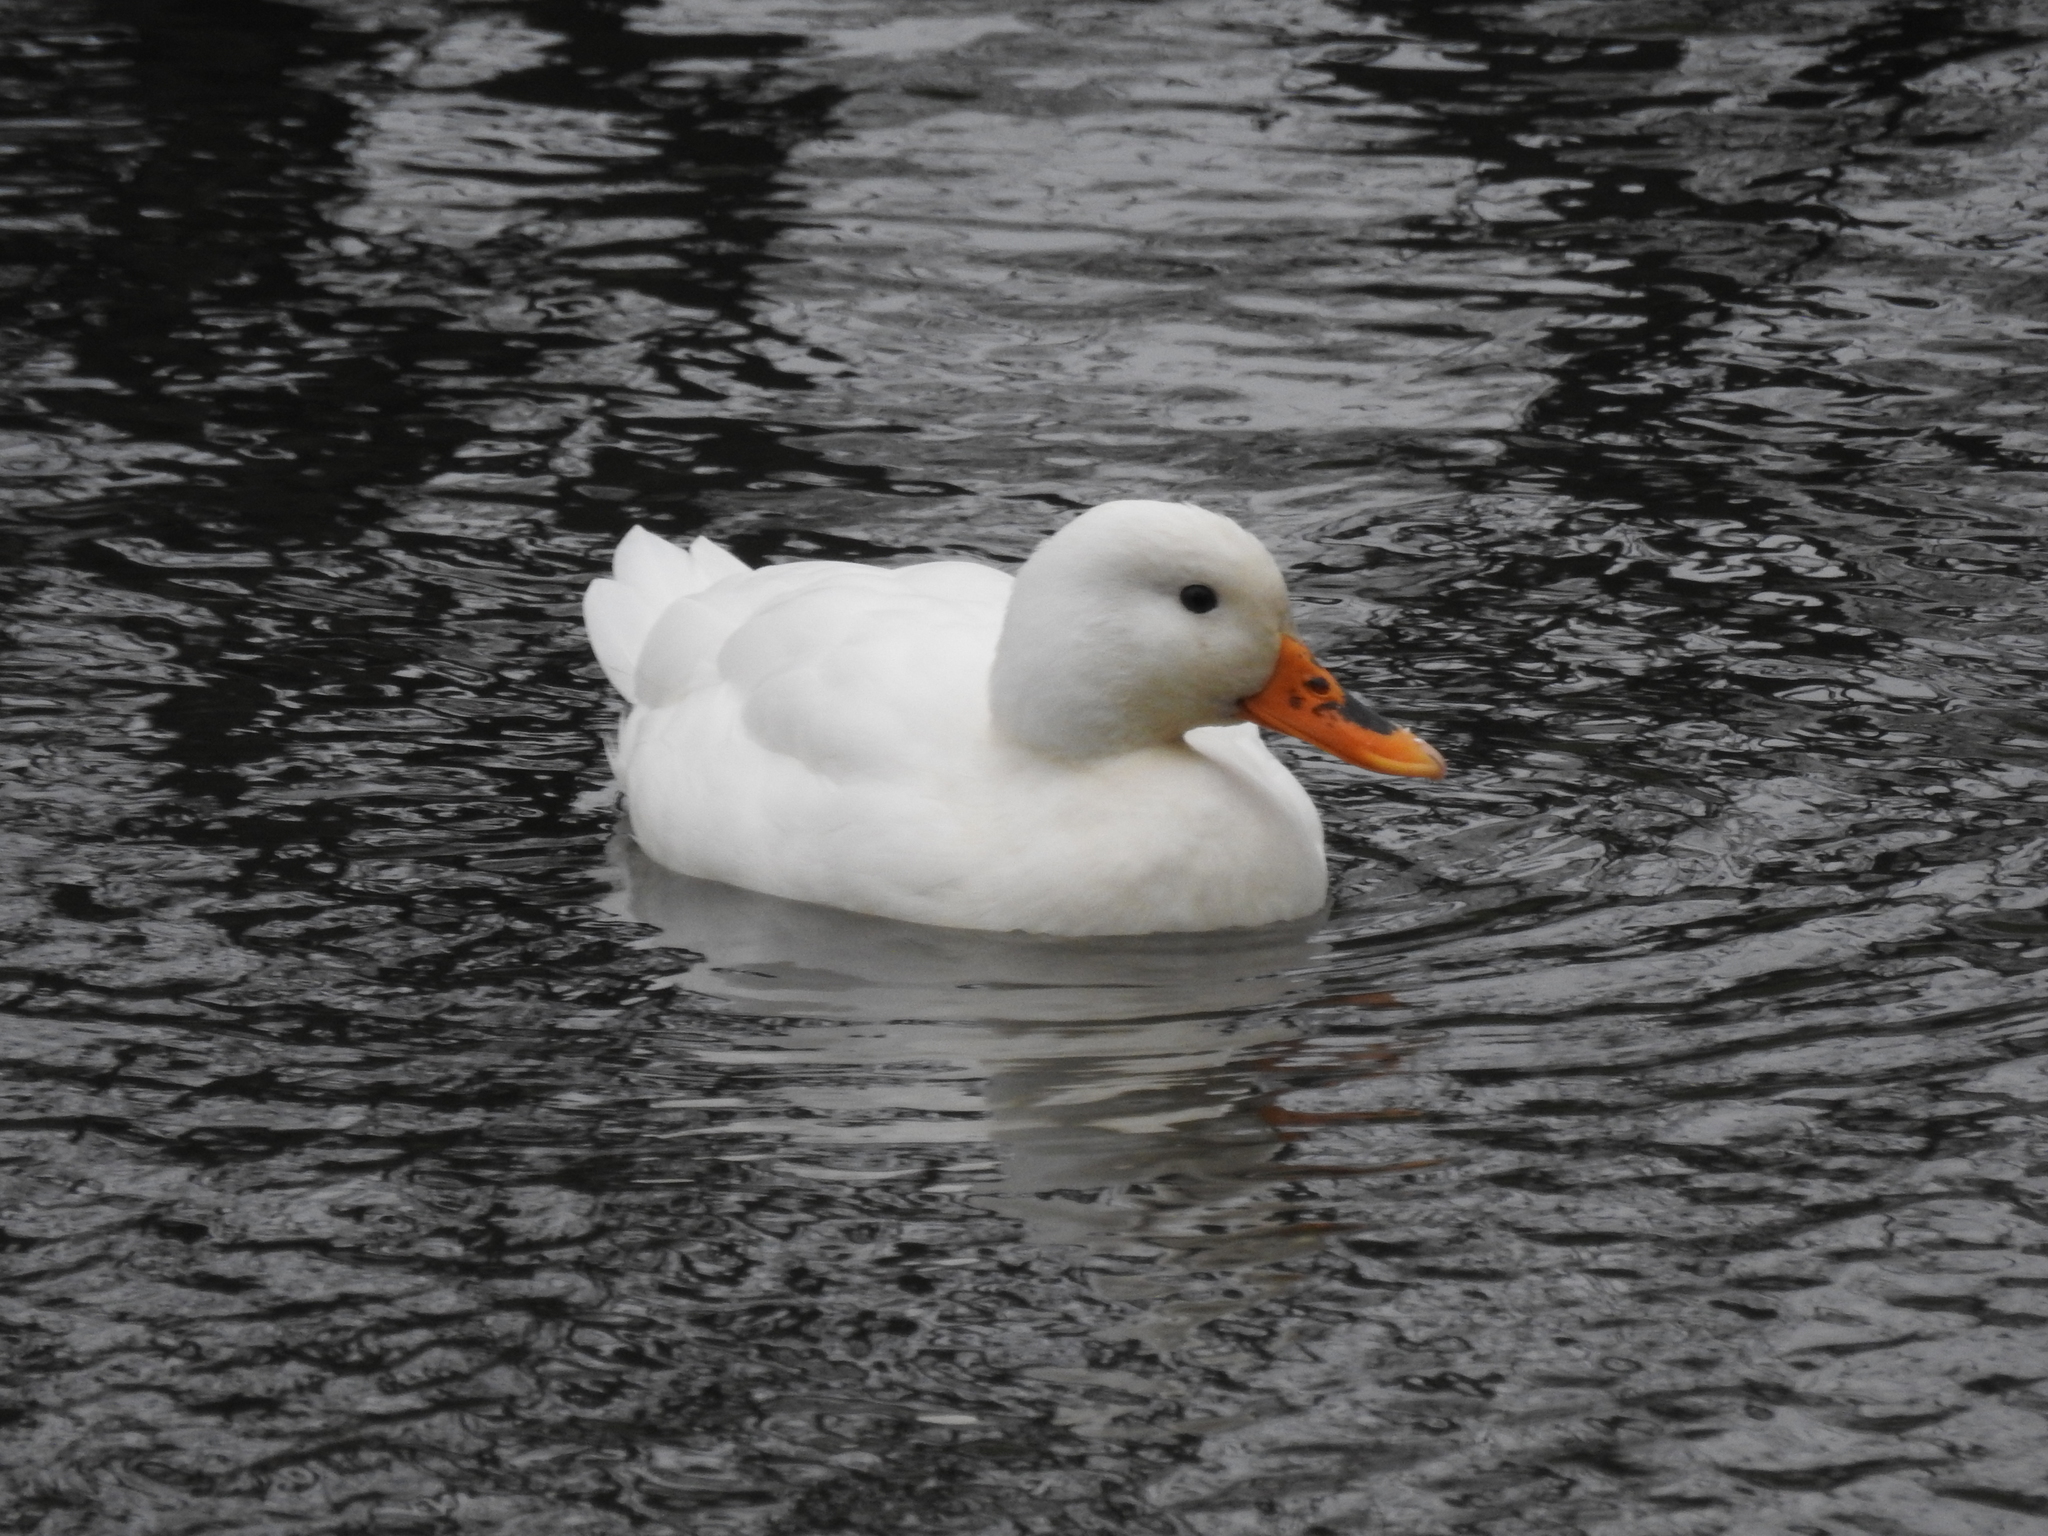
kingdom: Animalia
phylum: Chordata
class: Aves
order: Anseriformes
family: Anatidae
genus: Anas
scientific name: Anas platyrhynchos
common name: Mallard
